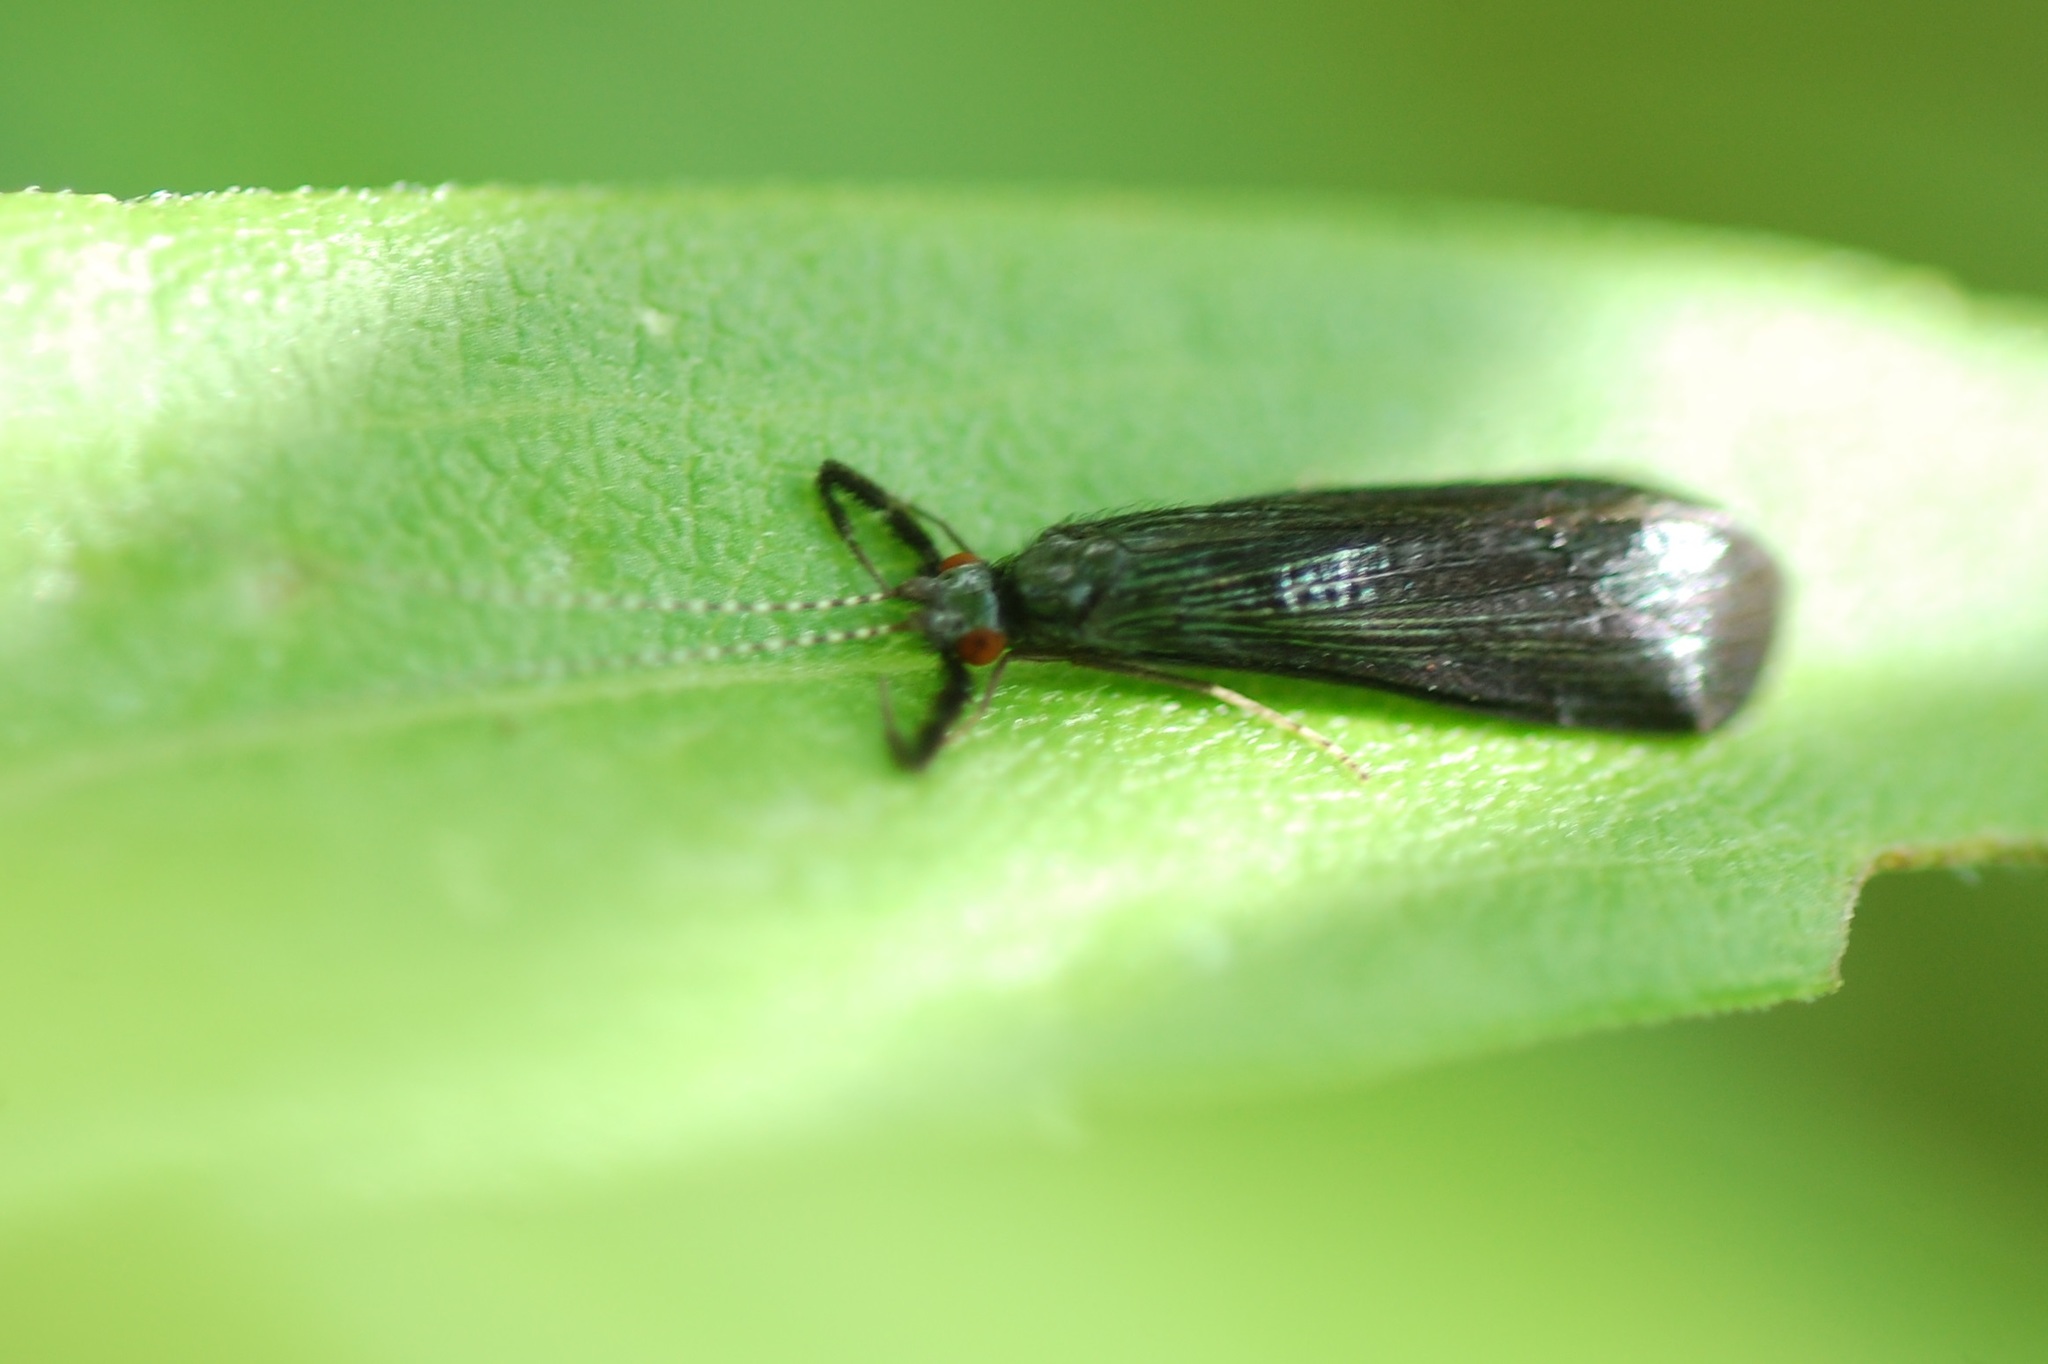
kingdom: Animalia
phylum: Arthropoda
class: Insecta
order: Trichoptera
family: Leptoceridae
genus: Mystacides
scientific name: Mystacides sepulchralis
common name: Black dancer caddisfly
